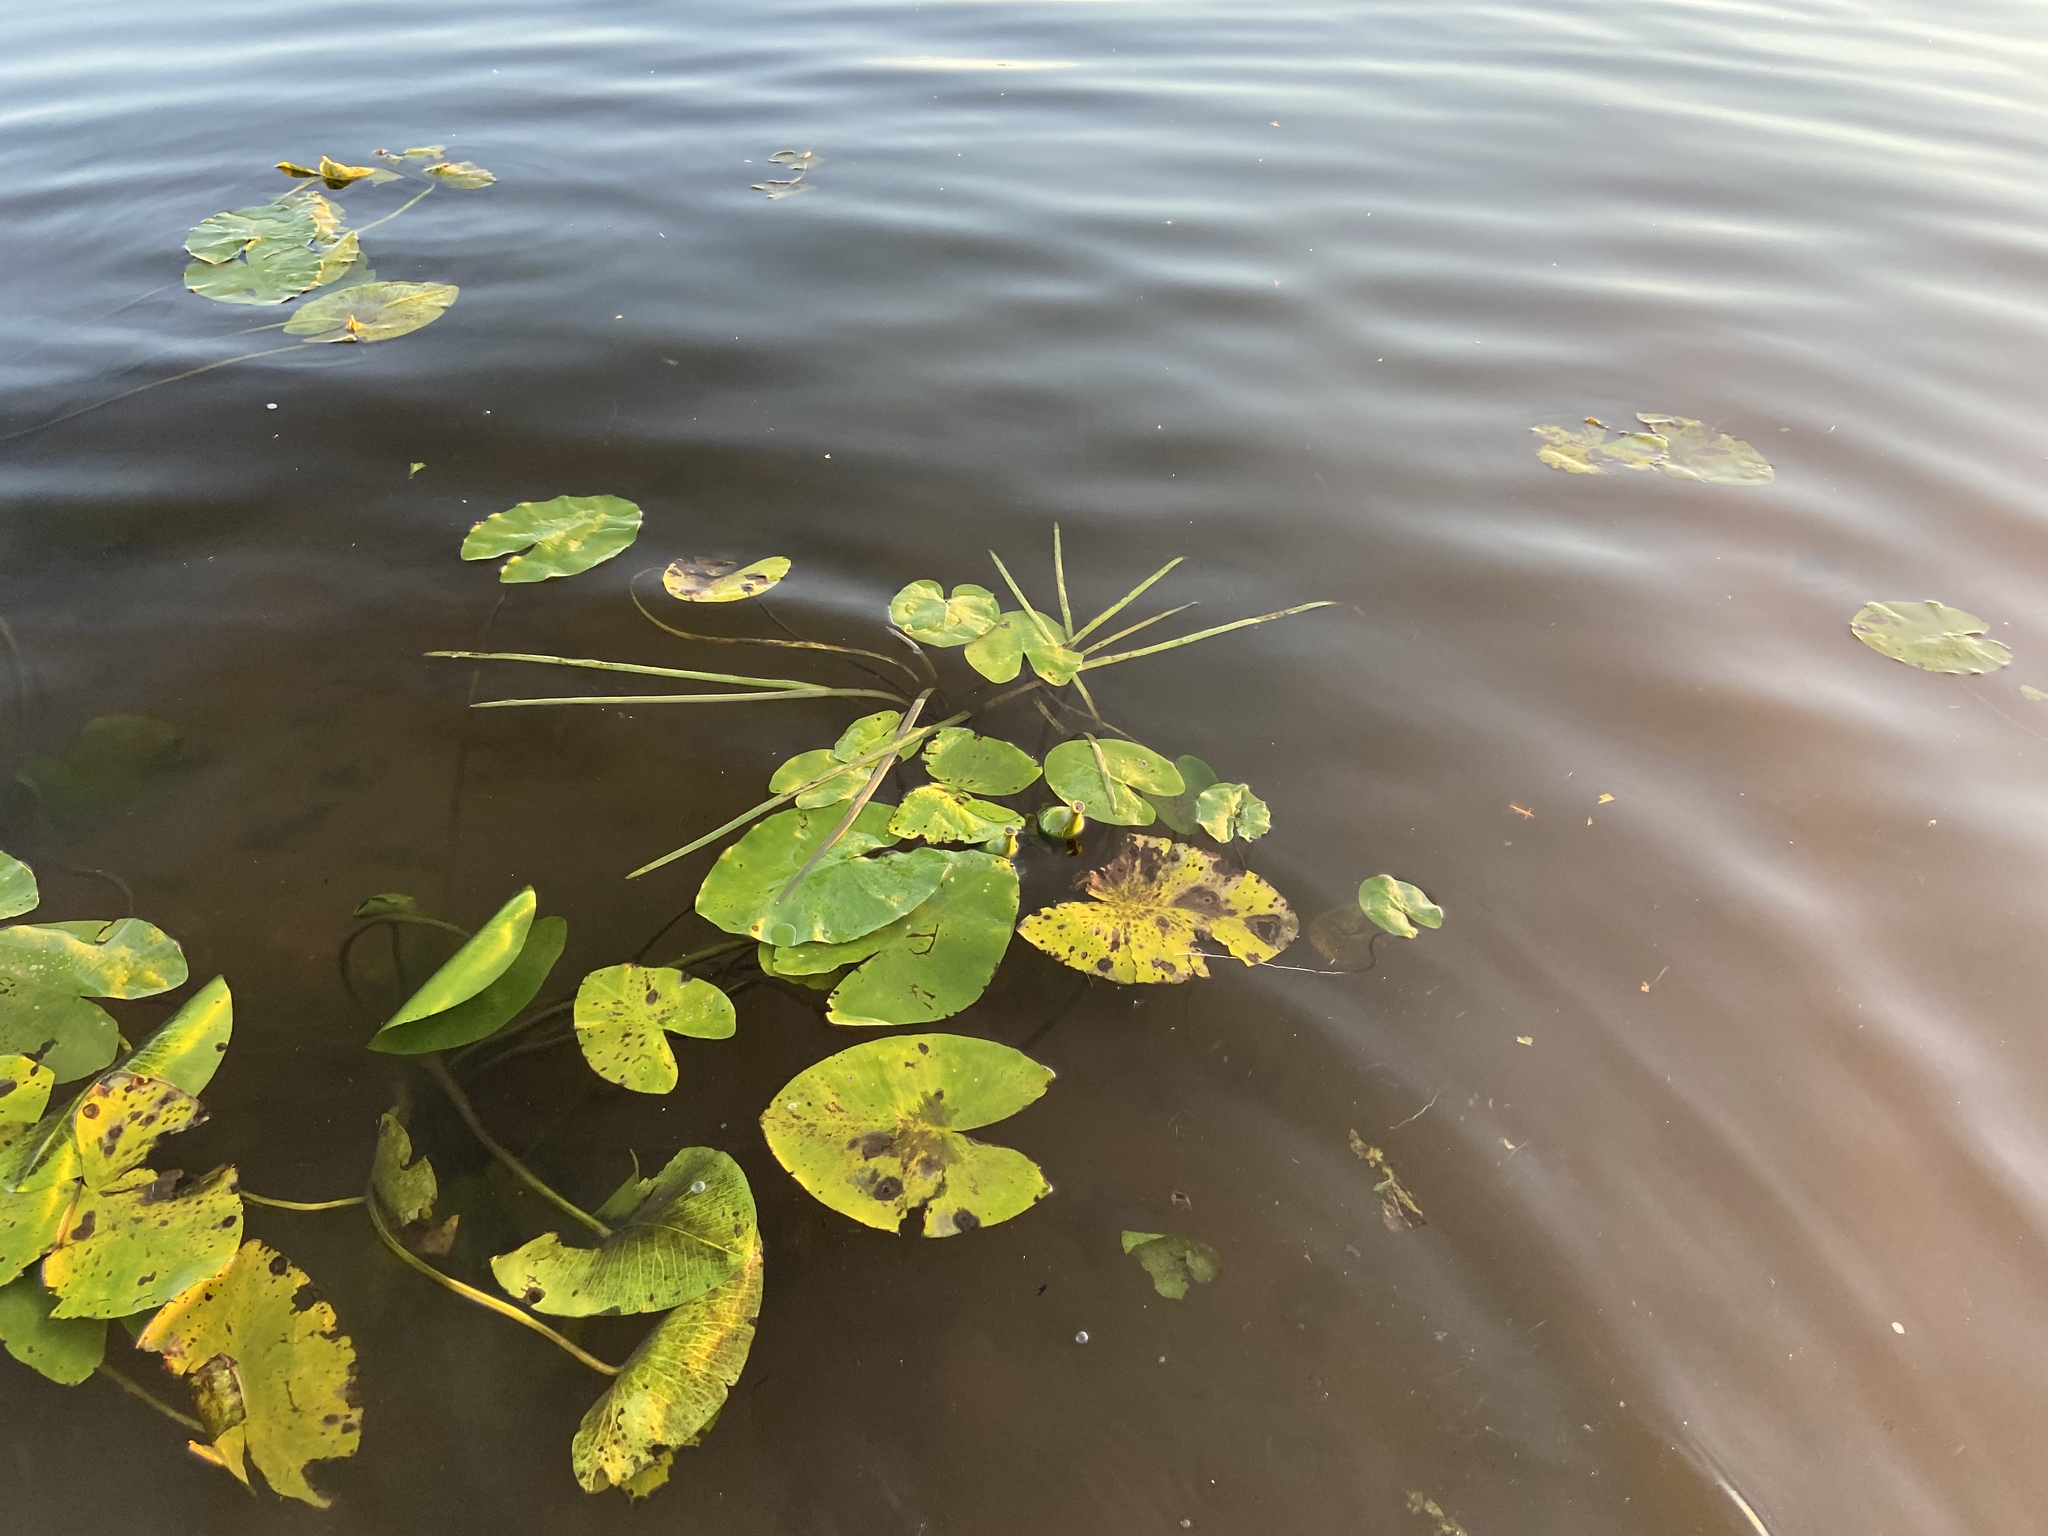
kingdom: Plantae
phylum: Tracheophyta
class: Magnoliopsida
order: Nymphaeales
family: Nymphaeaceae
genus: Nuphar
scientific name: Nuphar lutea
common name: Yellow water-lily
